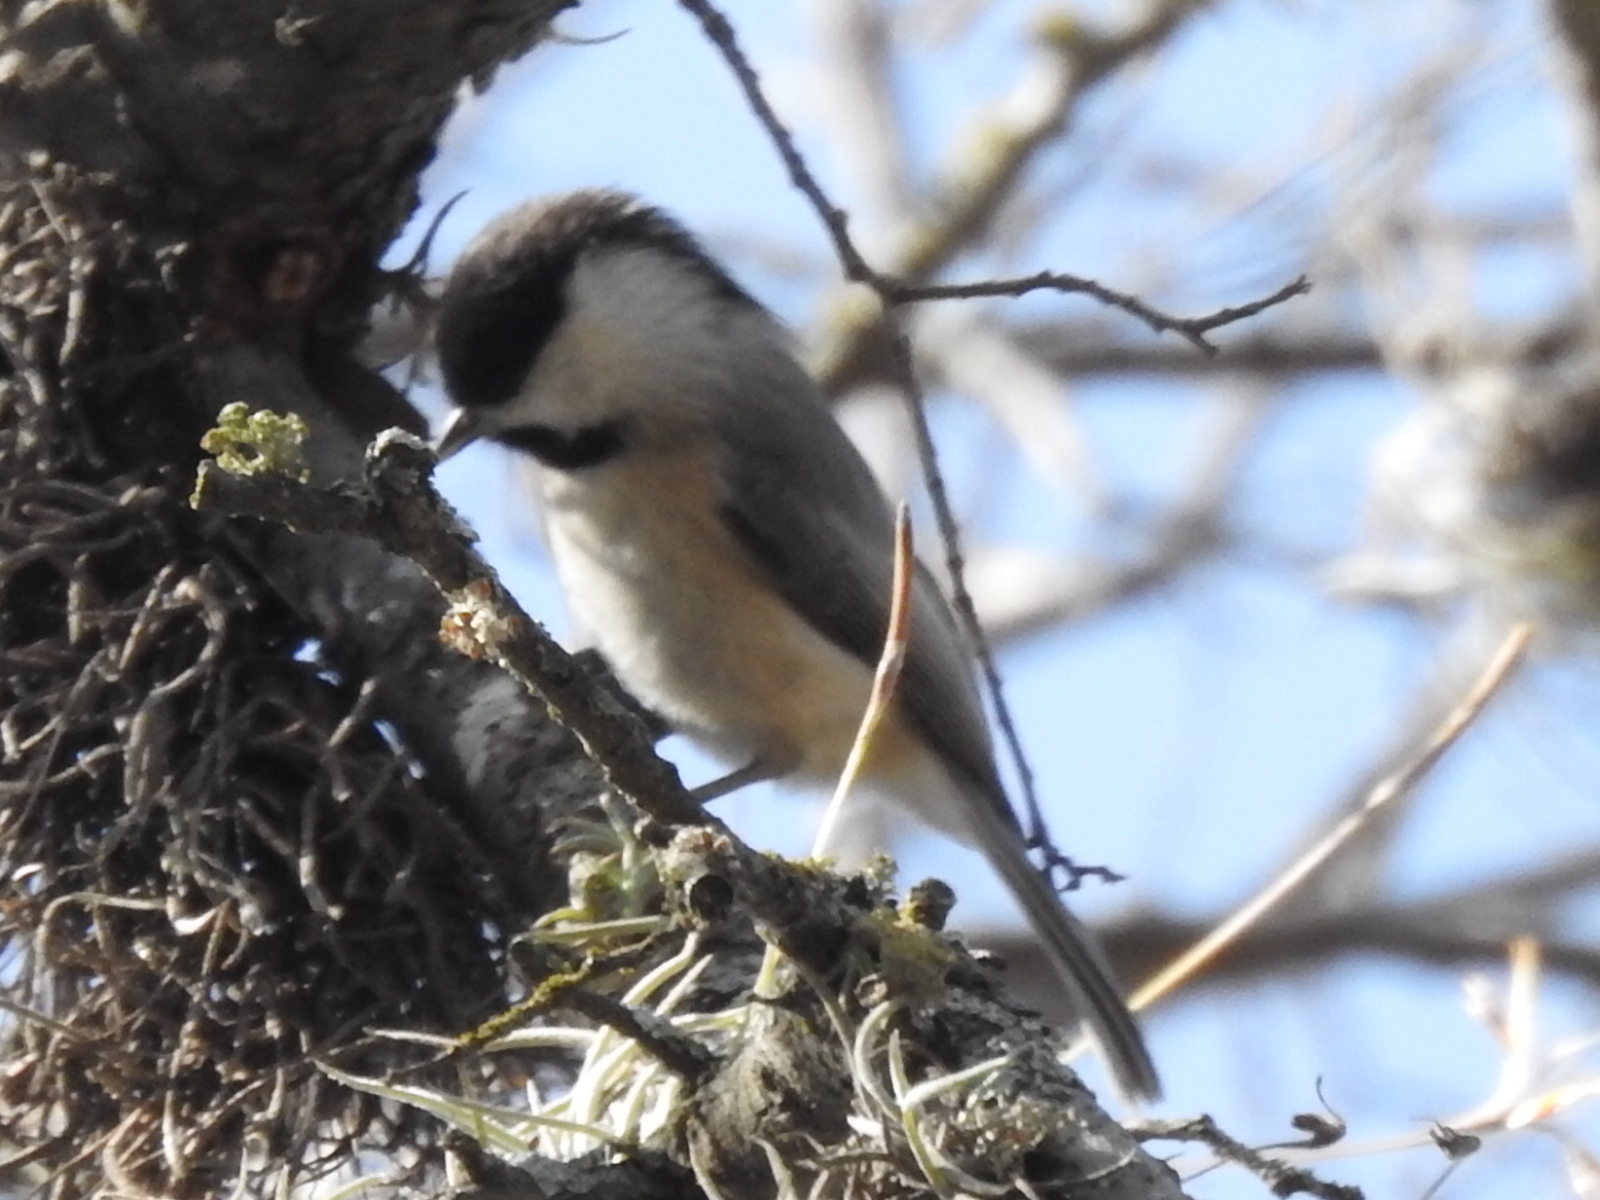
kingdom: Animalia
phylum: Chordata
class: Aves
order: Passeriformes
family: Paridae
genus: Poecile
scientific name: Poecile carolinensis
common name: Carolina chickadee
